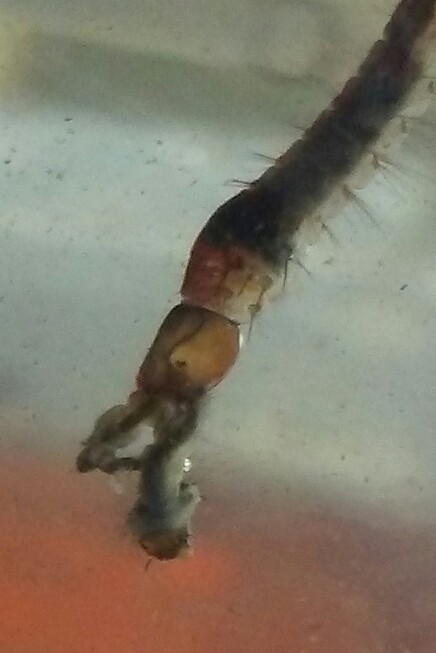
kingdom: Animalia
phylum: Arthropoda
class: Insecta
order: Diptera
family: Culicidae
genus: Toxorhynchites
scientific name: Toxorhynchites rutilus
